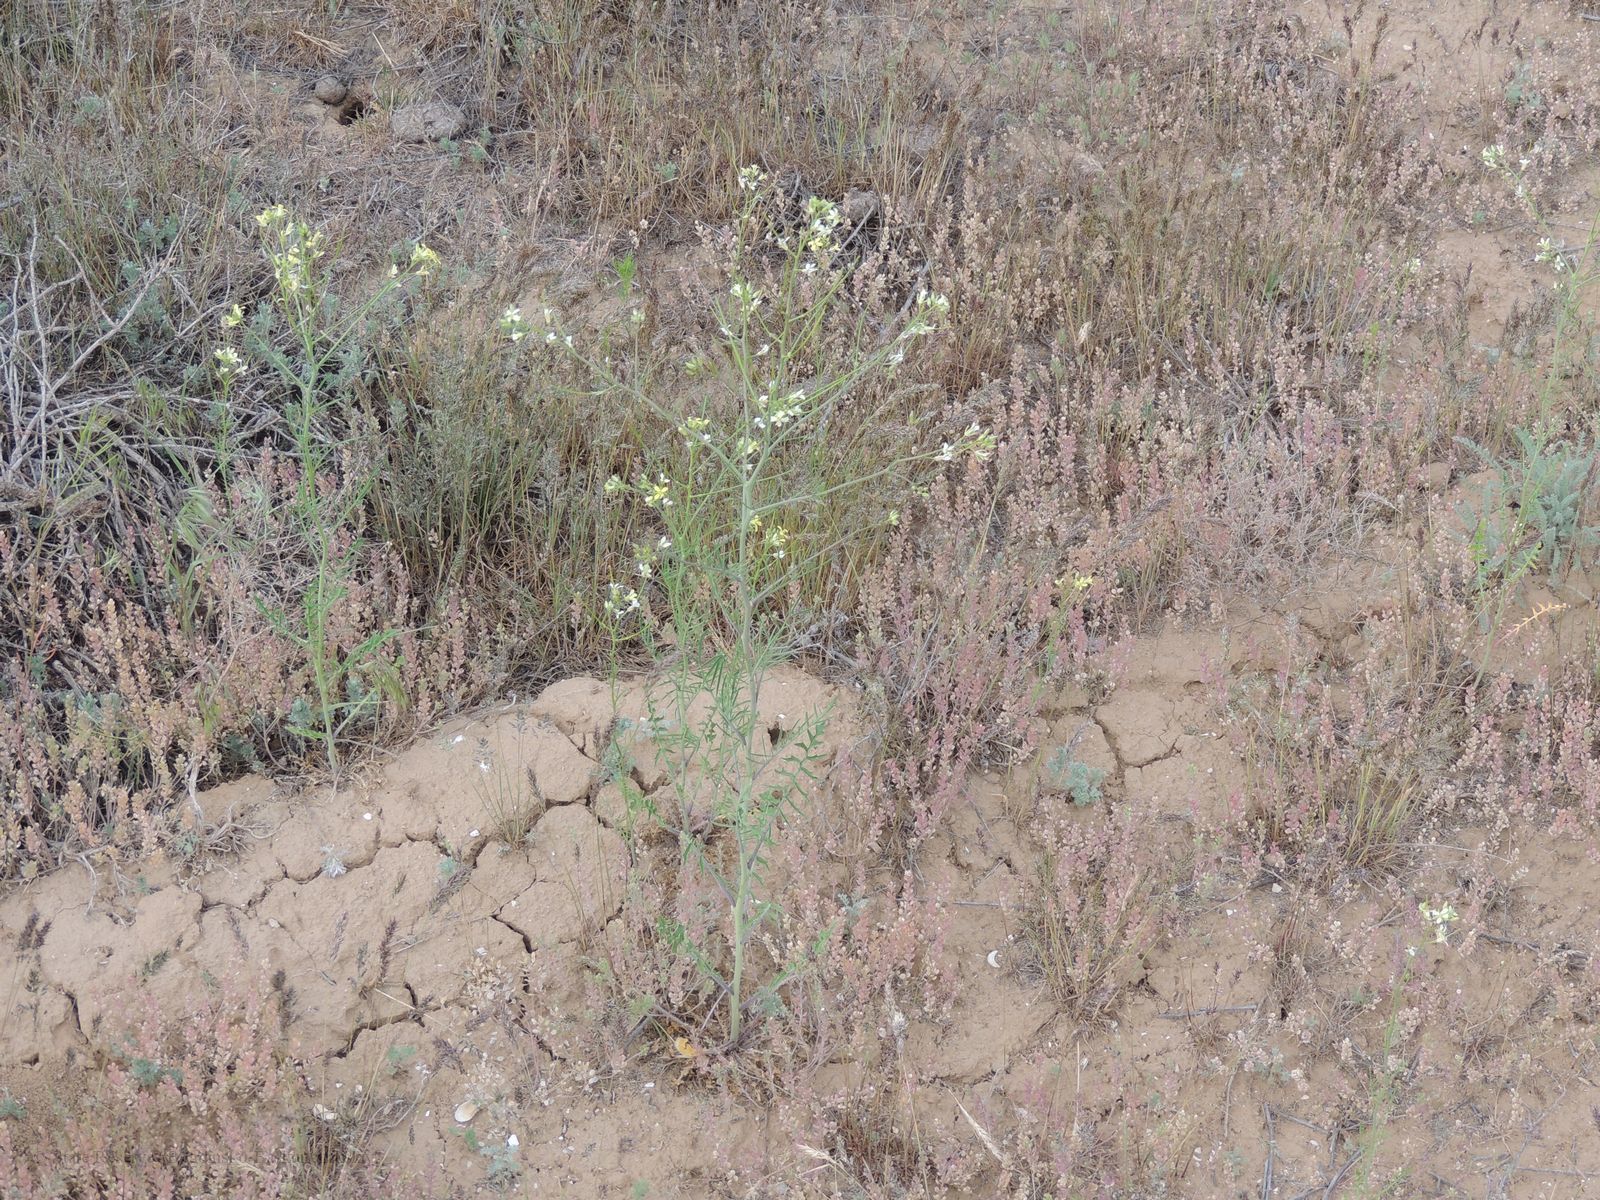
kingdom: Plantae
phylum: Tracheophyta
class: Magnoliopsida
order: Brassicales
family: Brassicaceae
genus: Sisymbrium
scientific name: Sisymbrium altissimum
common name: Tall rocket
